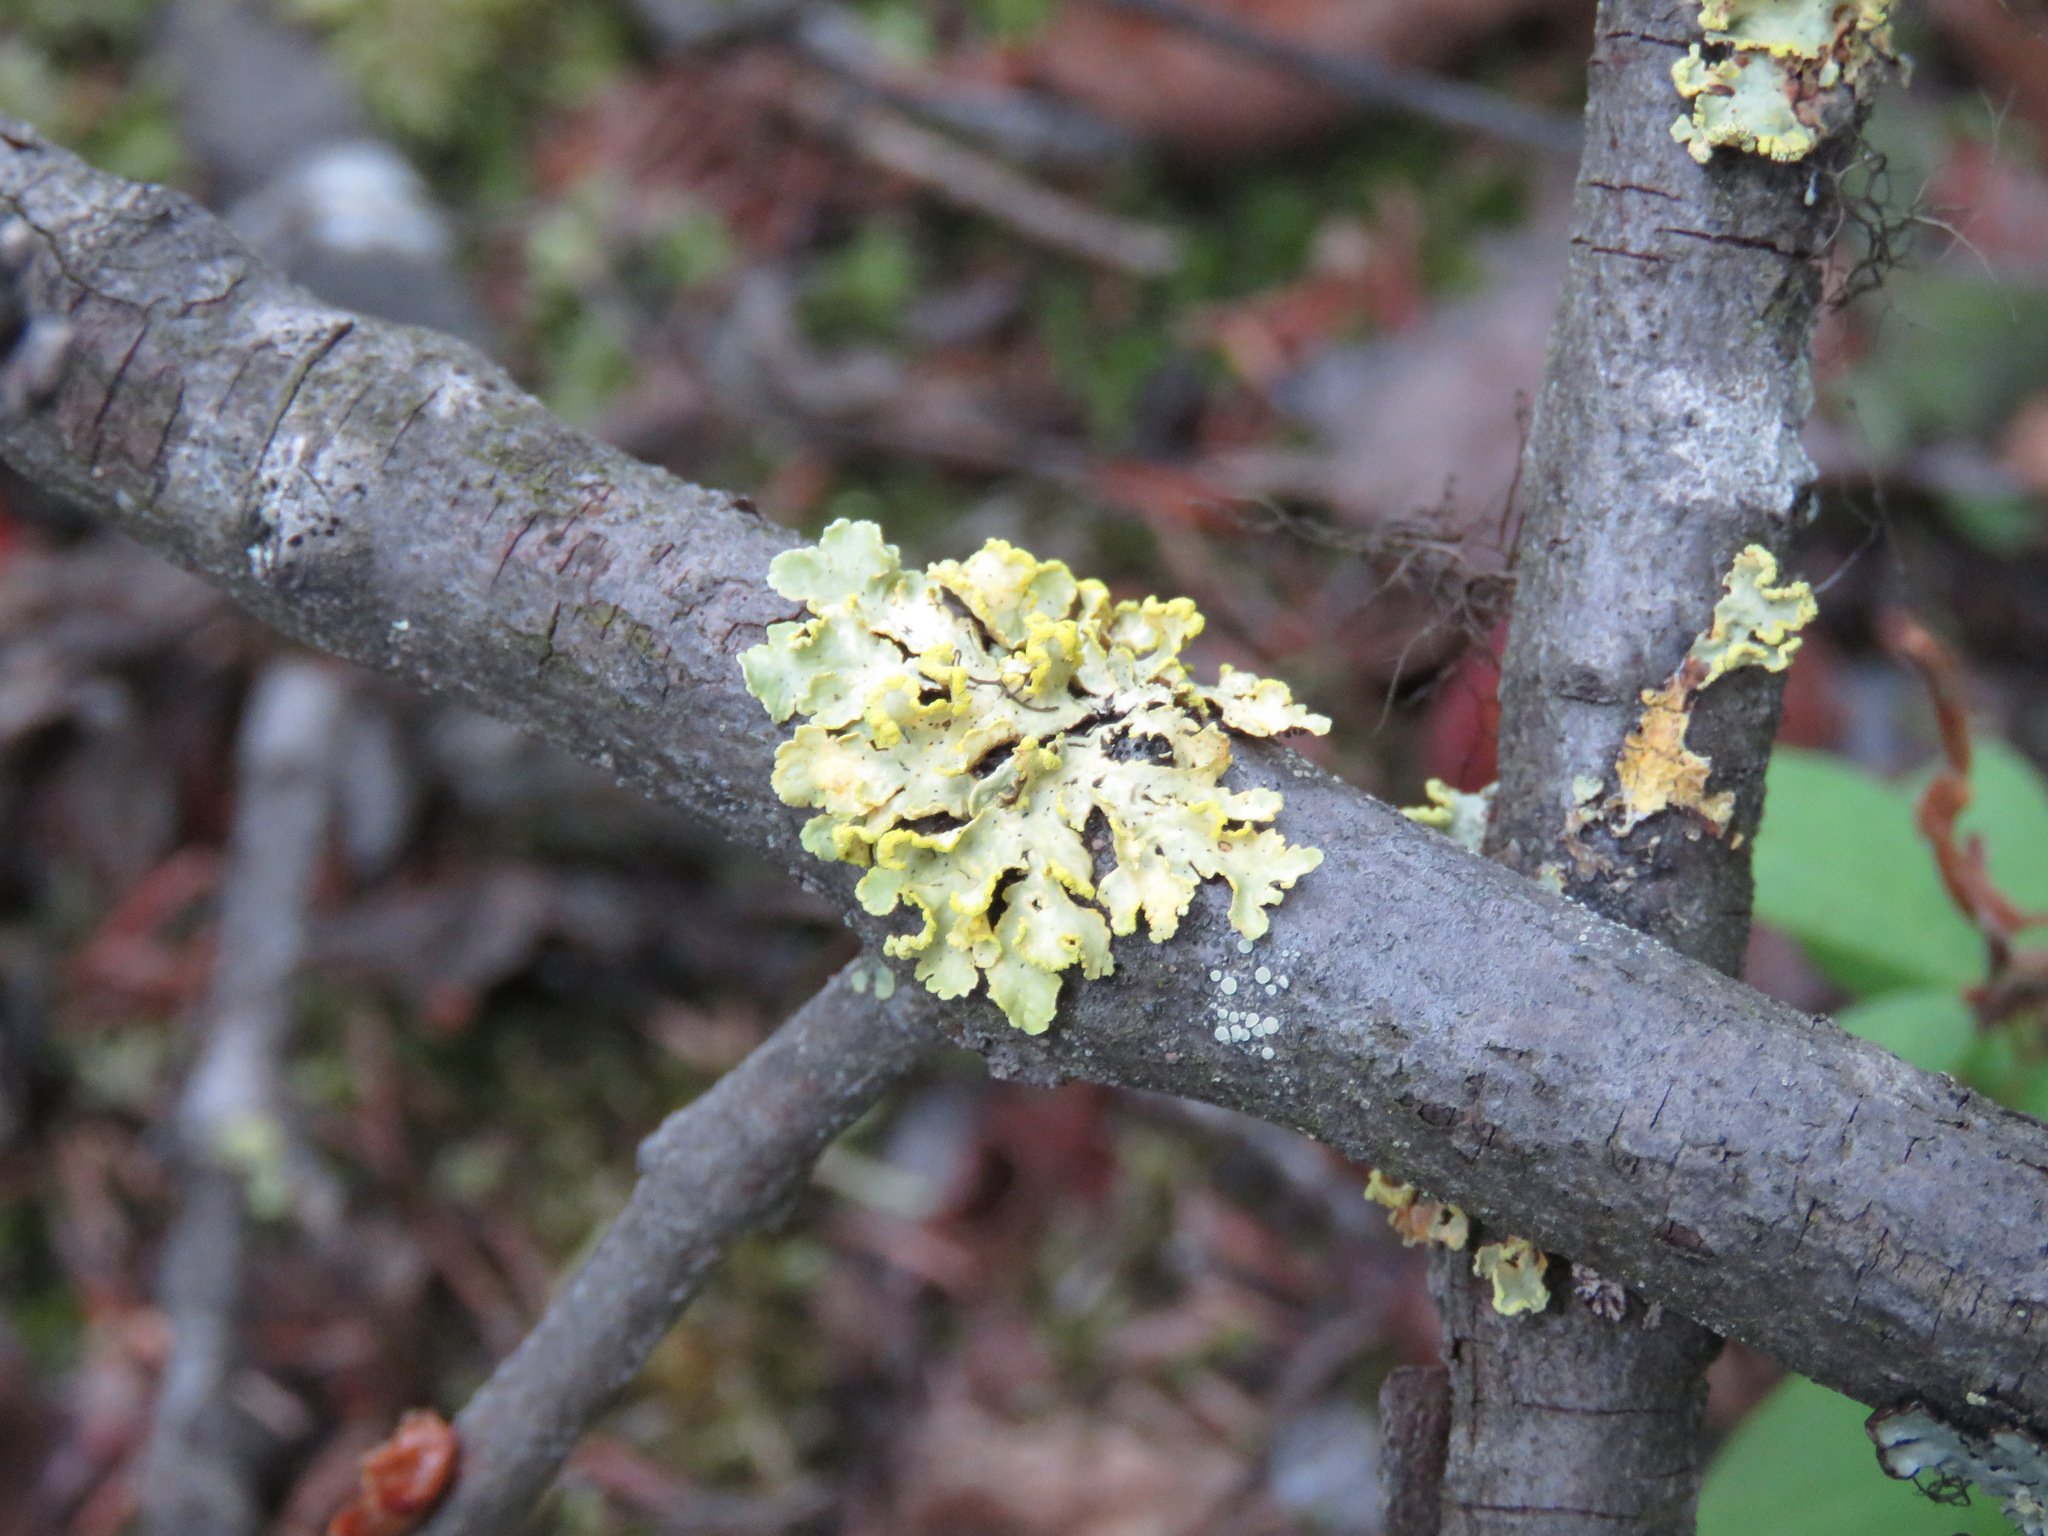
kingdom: Fungi
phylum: Ascomycota
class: Lecanoromycetes
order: Lecanorales
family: Parmeliaceae
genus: Vulpicida
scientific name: Vulpicida pinastri
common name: Powdered sunshine lichen
